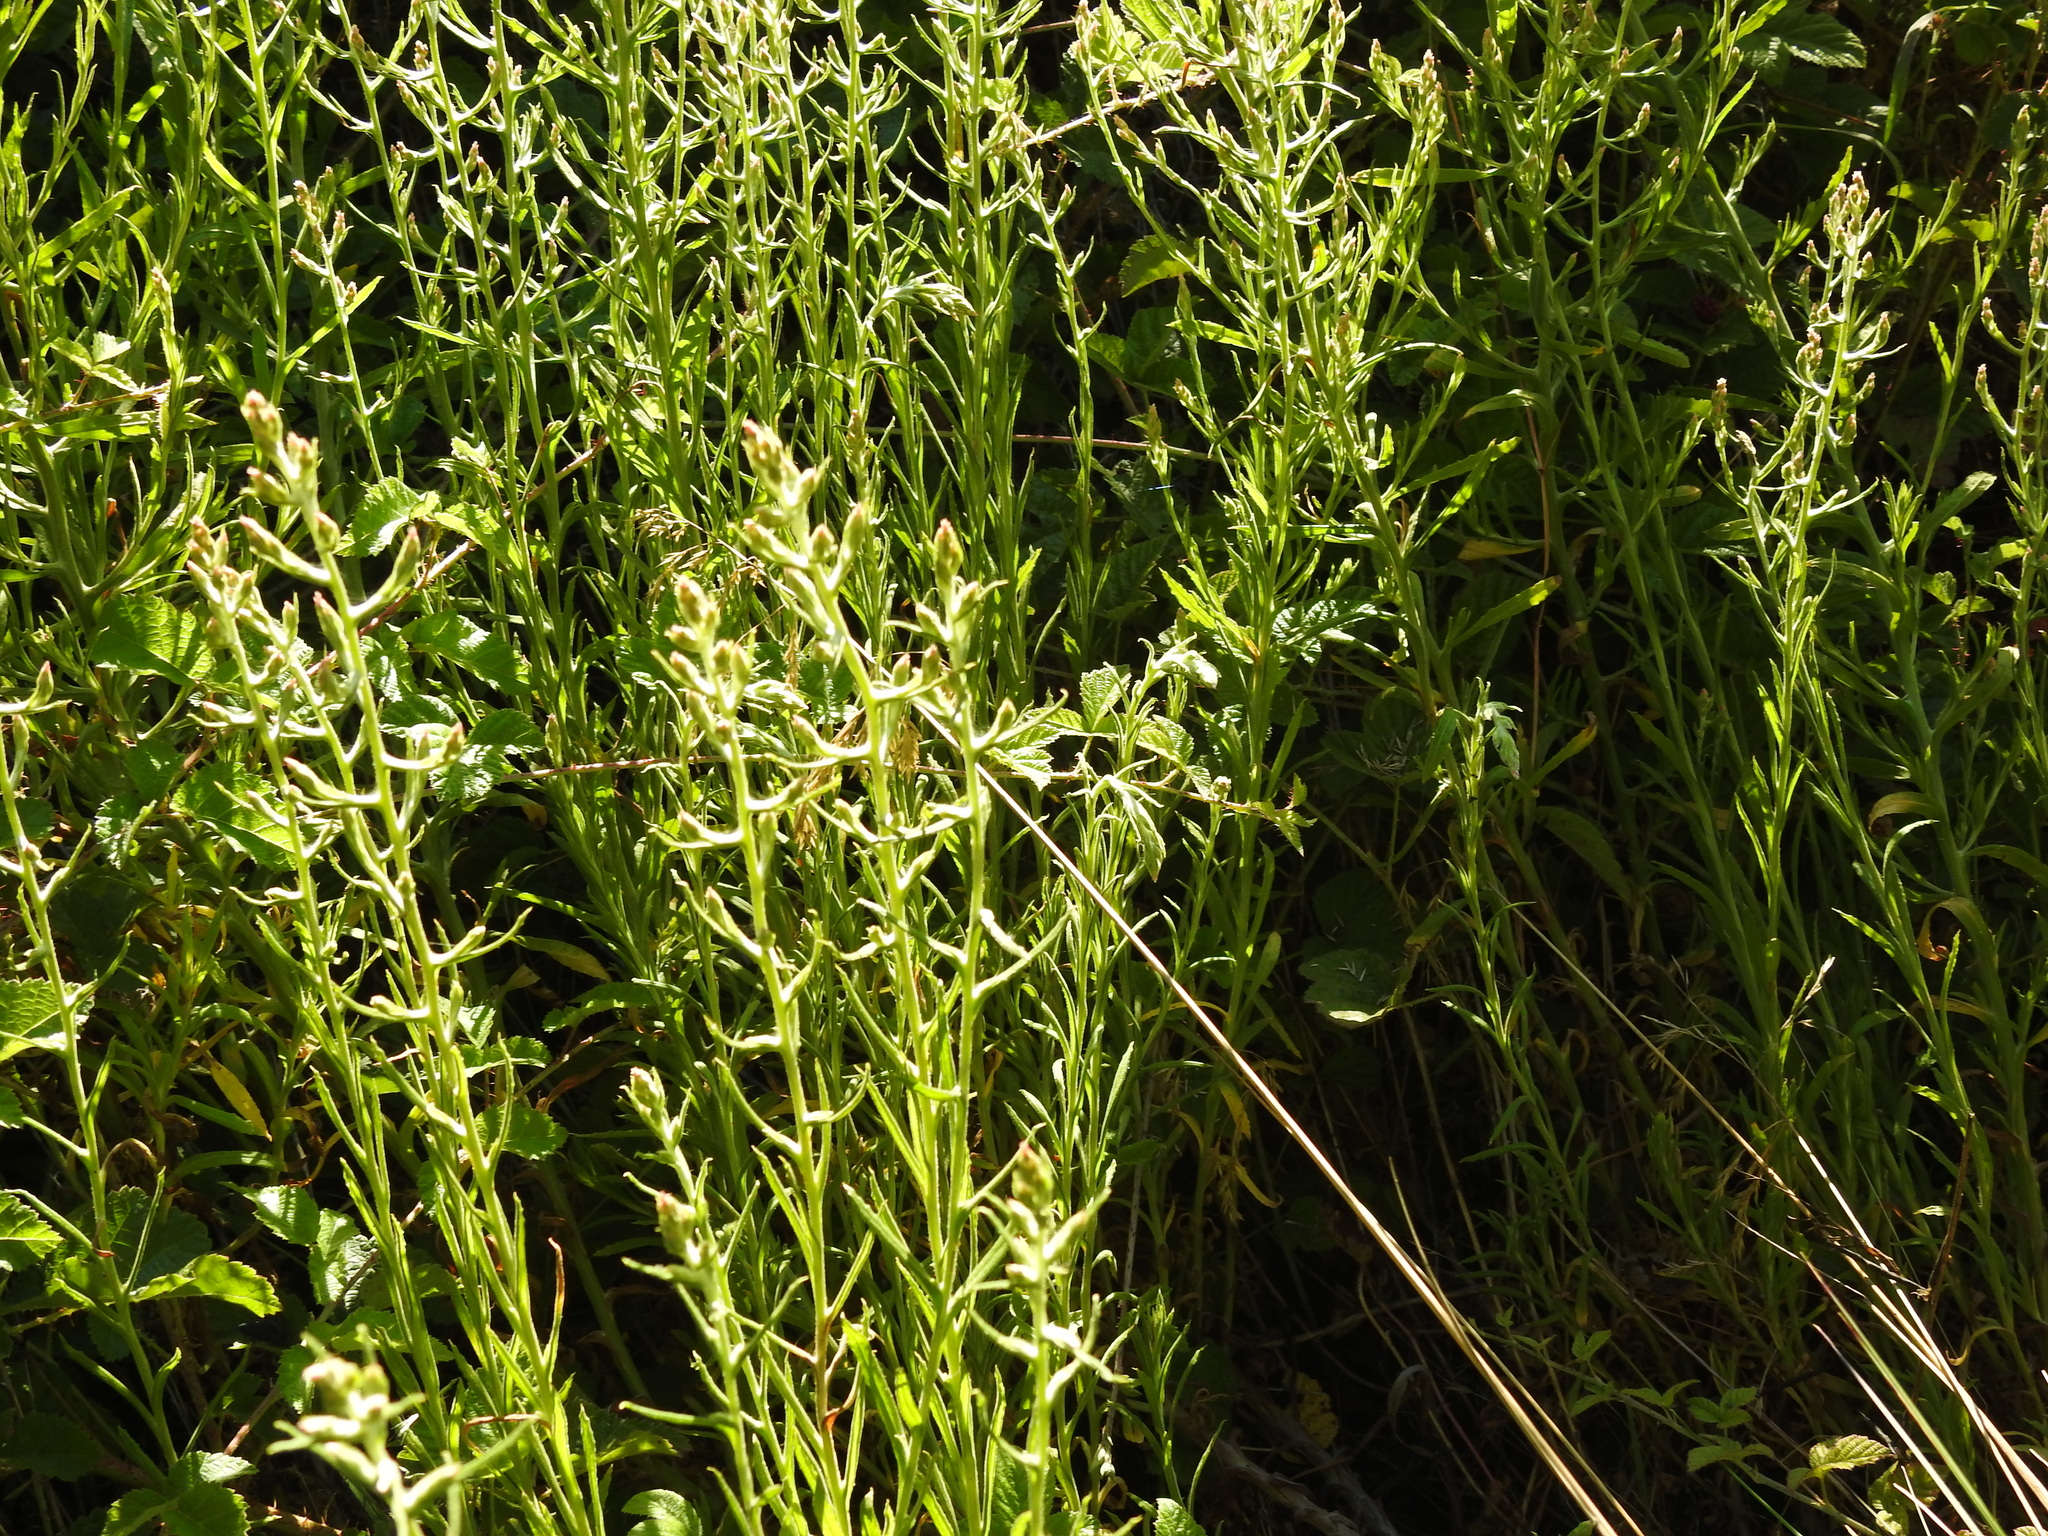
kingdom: Plantae
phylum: Tracheophyta
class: Magnoliopsida
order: Asterales
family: Asteraceae
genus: Pseudognaphalium
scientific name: Pseudognaphalium ramosissimum
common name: Pink rabbit-tobacco
